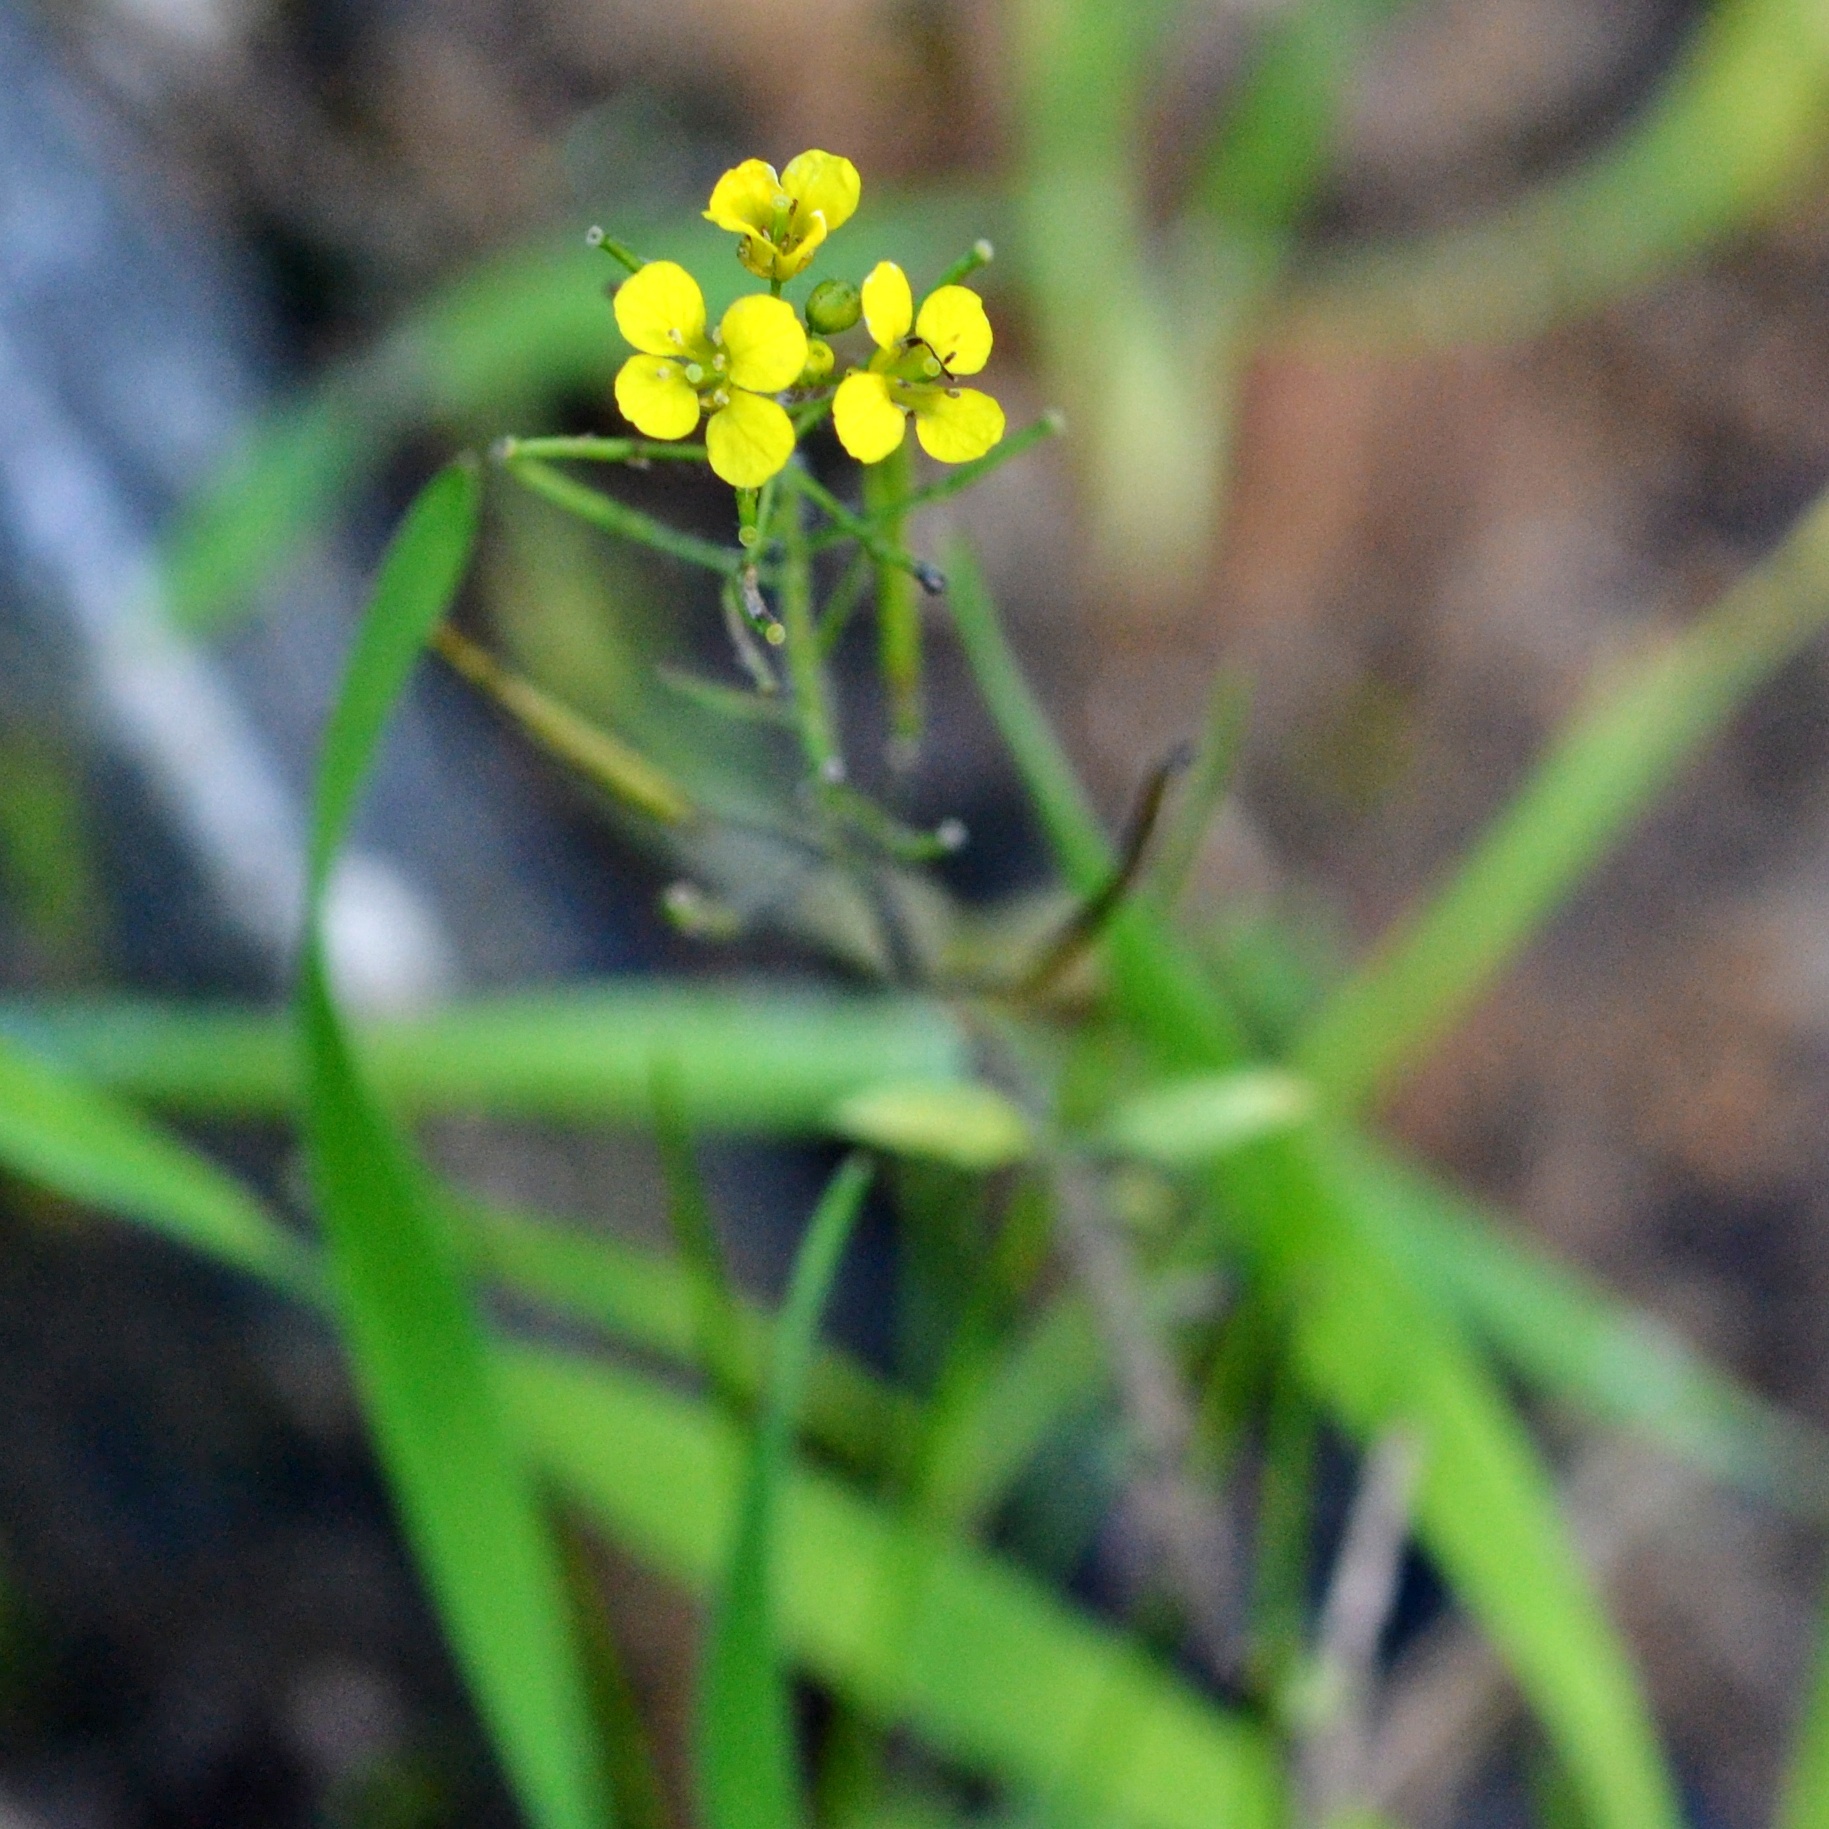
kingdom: Plantae
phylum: Tracheophyta
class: Magnoliopsida
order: Brassicales
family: Brassicaceae
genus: Sisymbrium
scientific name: Sisymbrium loeselii
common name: False london-rocket
